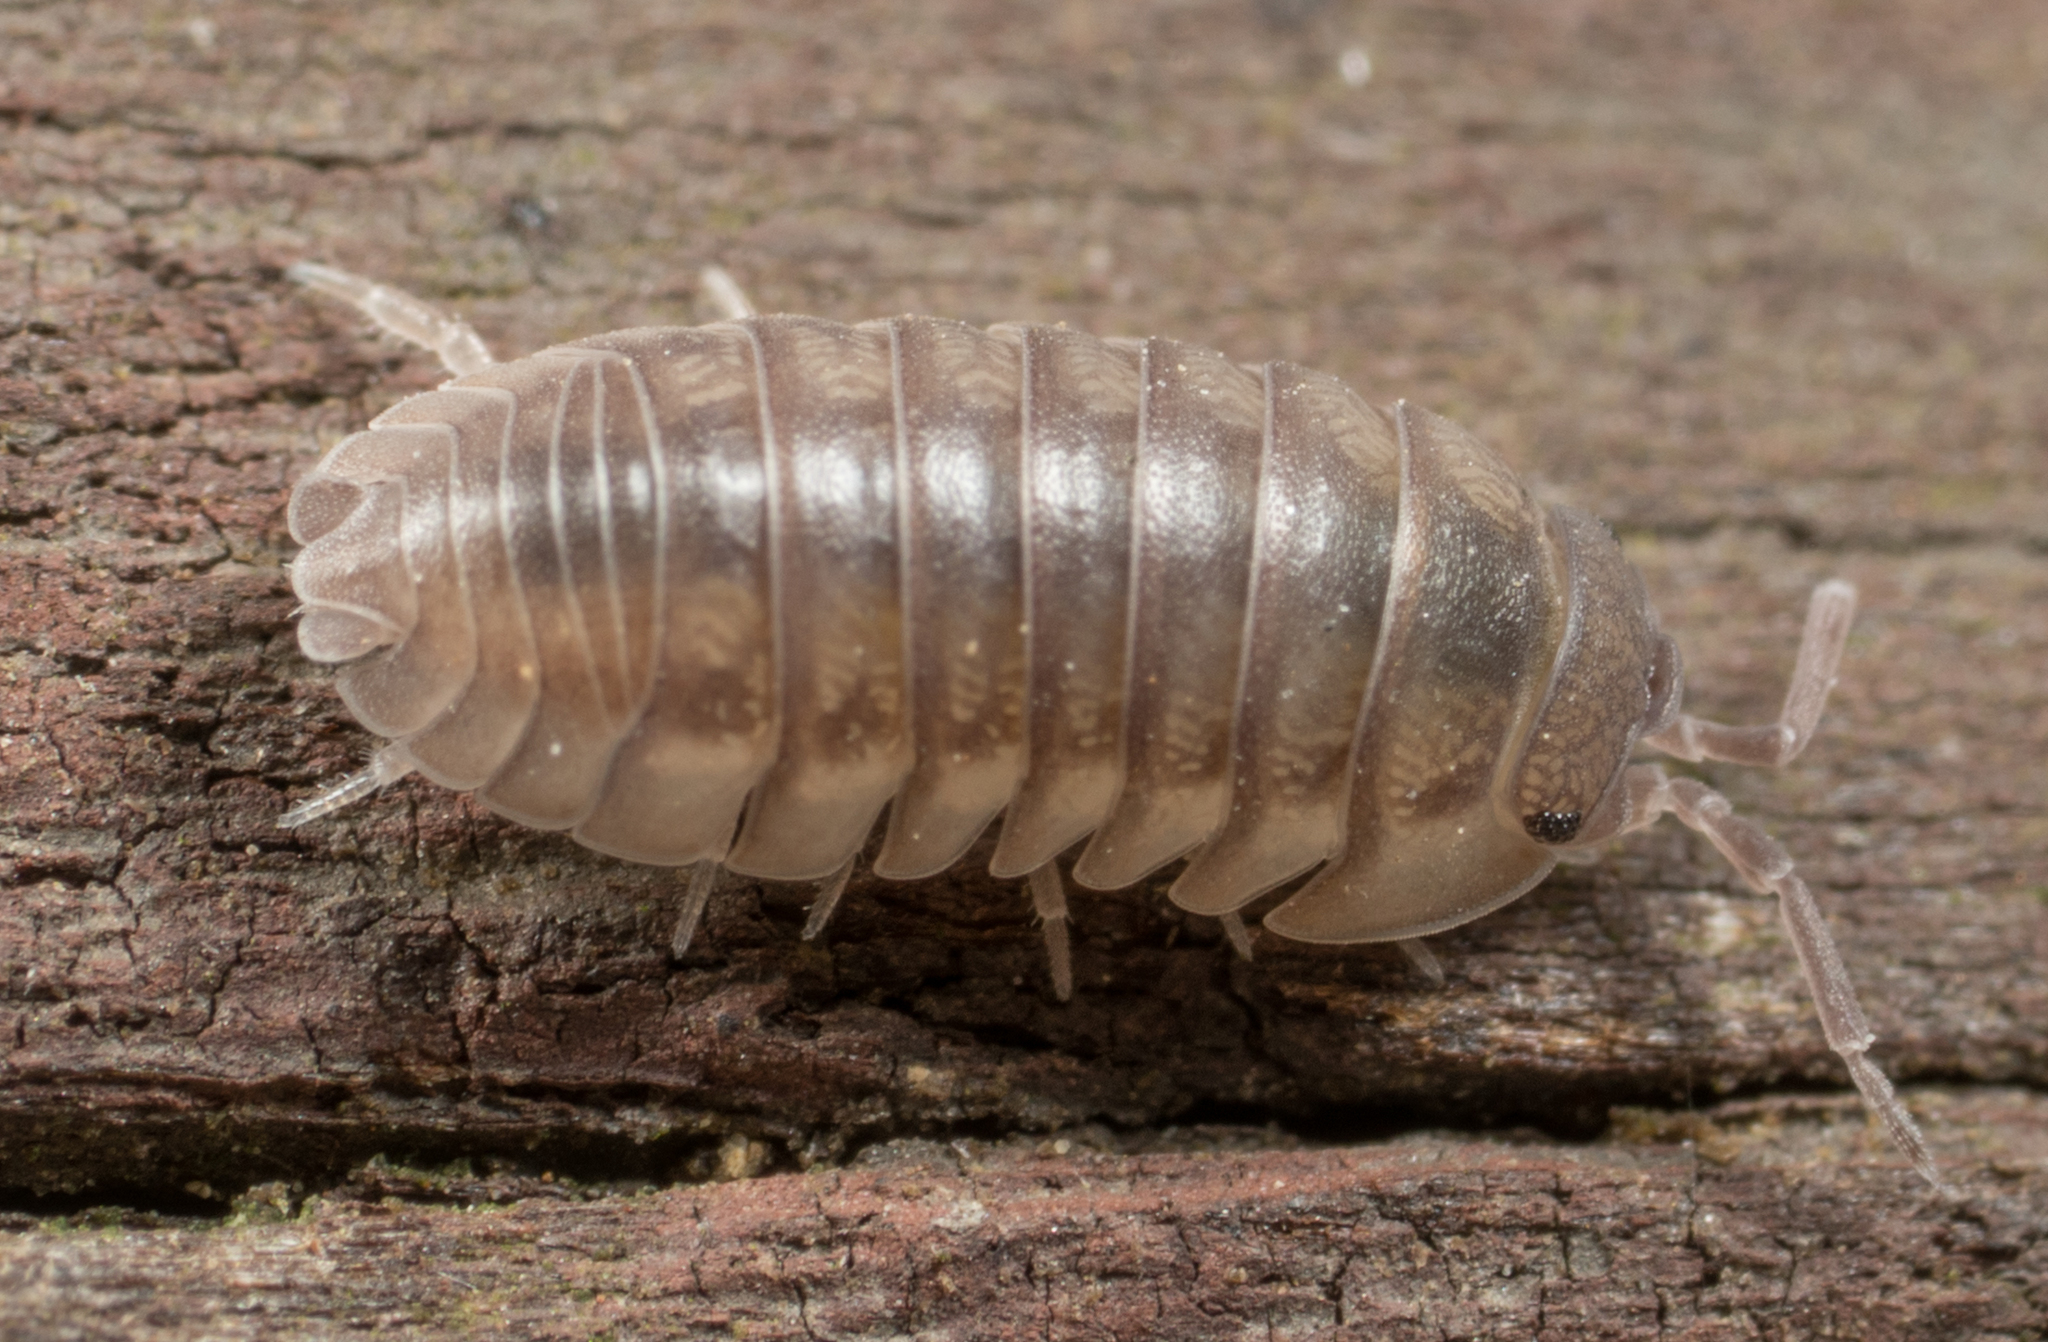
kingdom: Animalia
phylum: Arthropoda
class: Malacostraca
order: Isopoda
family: Armadillidiidae
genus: Armadillidium
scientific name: Armadillidium nasatum
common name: Isopod
